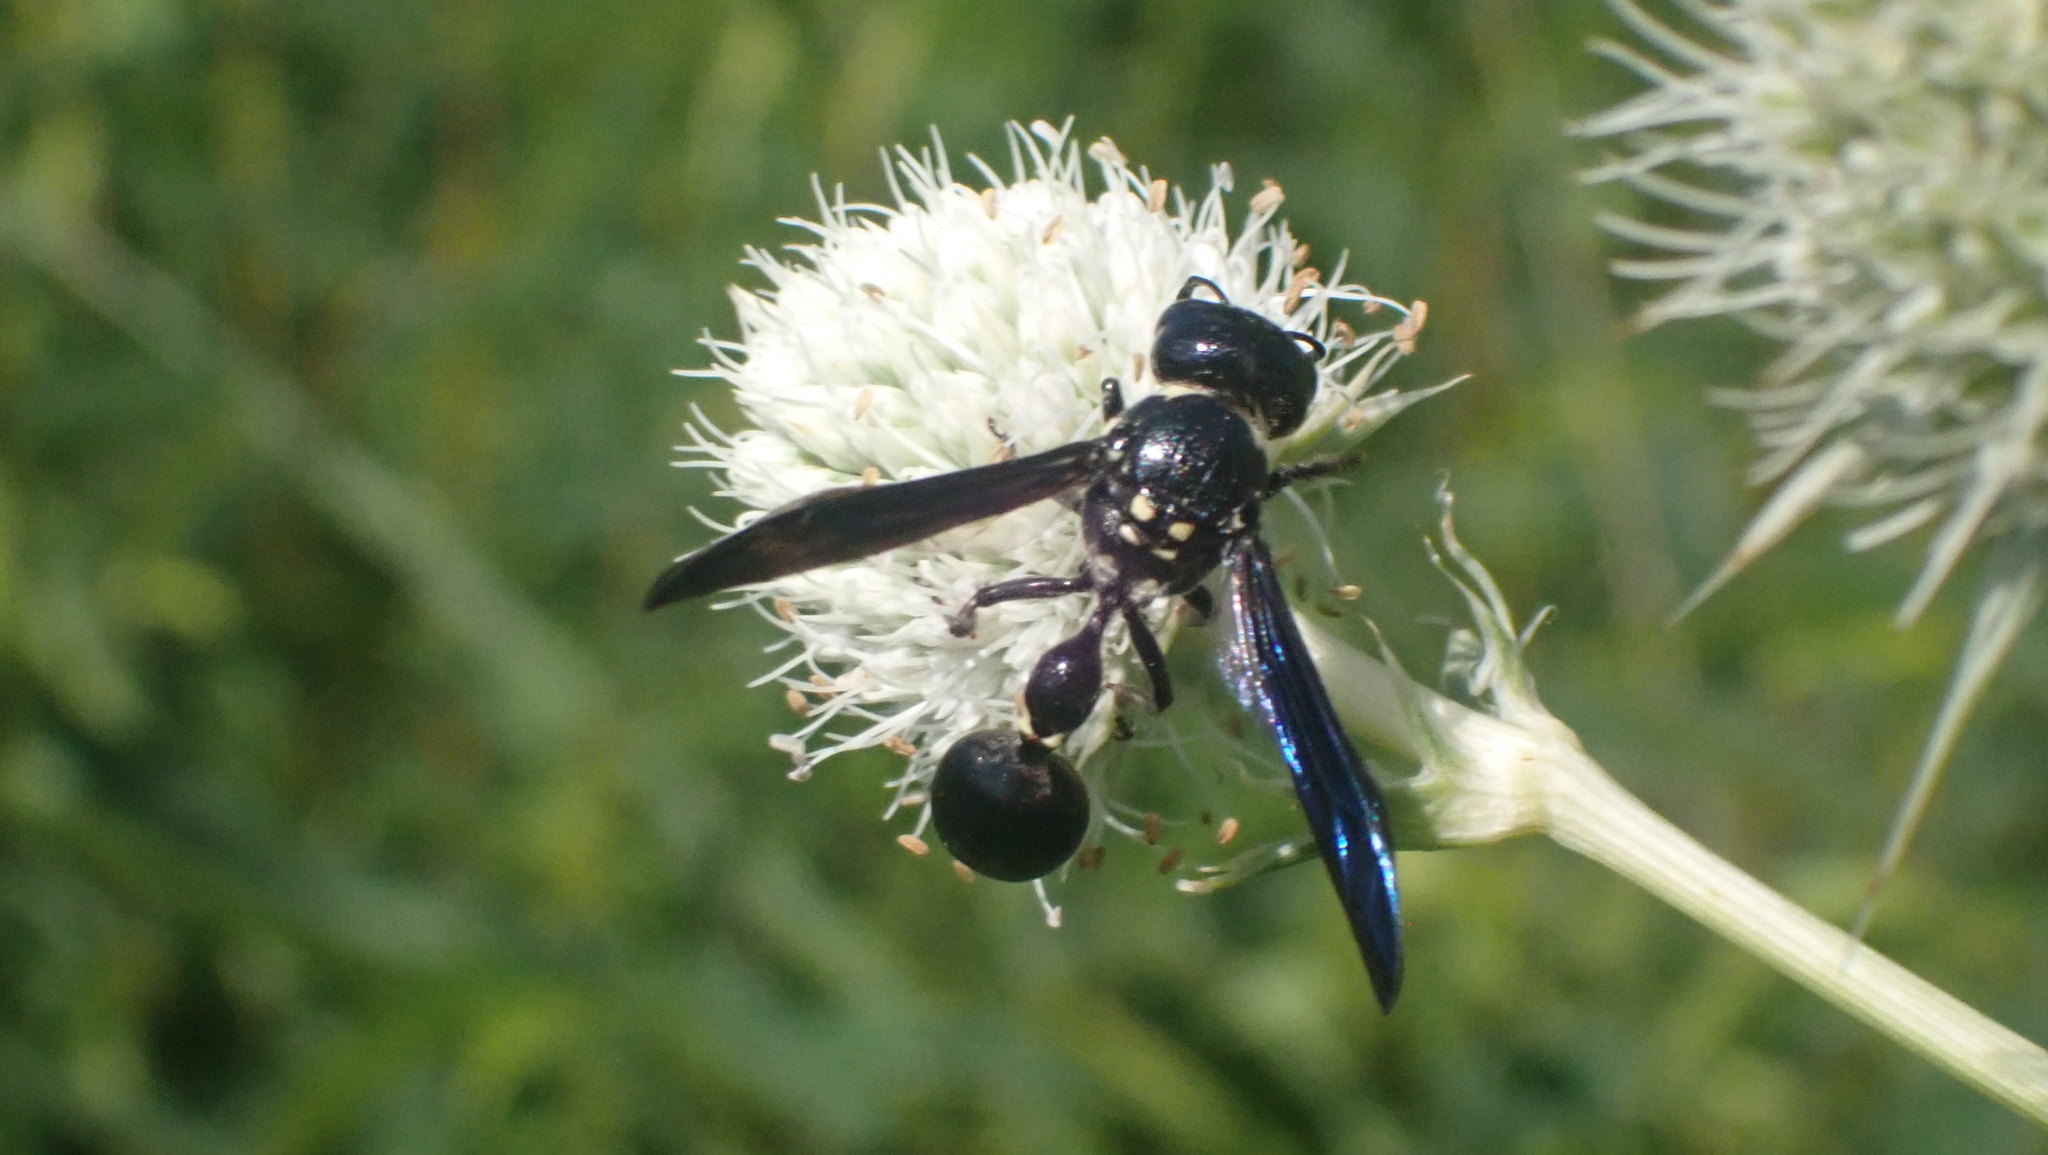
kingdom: Animalia
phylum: Arthropoda
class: Insecta
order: Hymenoptera
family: Eumenidae
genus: Zethus
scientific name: Zethus spinipes
